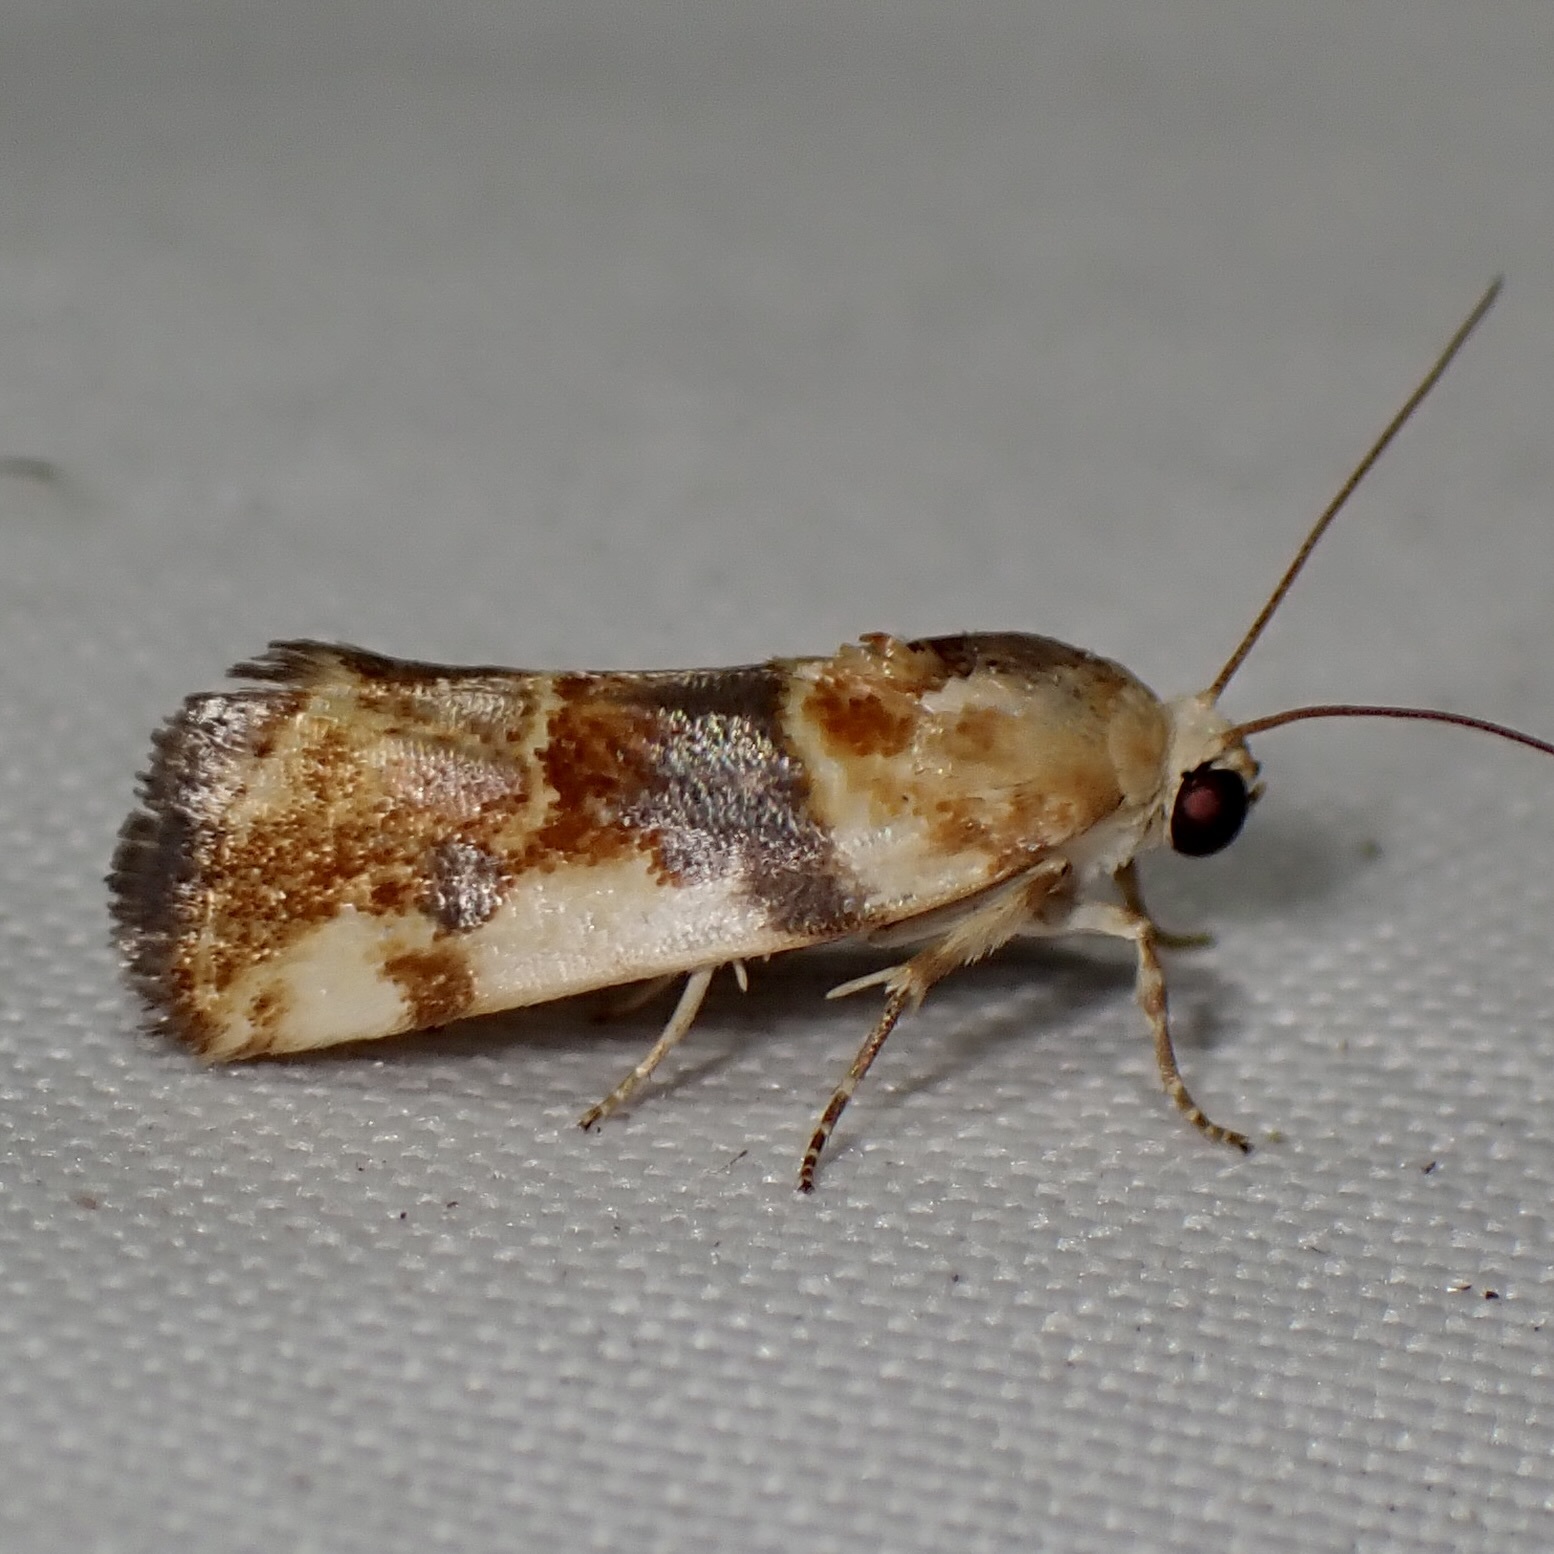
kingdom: Animalia
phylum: Arthropoda
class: Insecta
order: Lepidoptera
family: Noctuidae
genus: Acontia
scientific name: Acontia obatra
